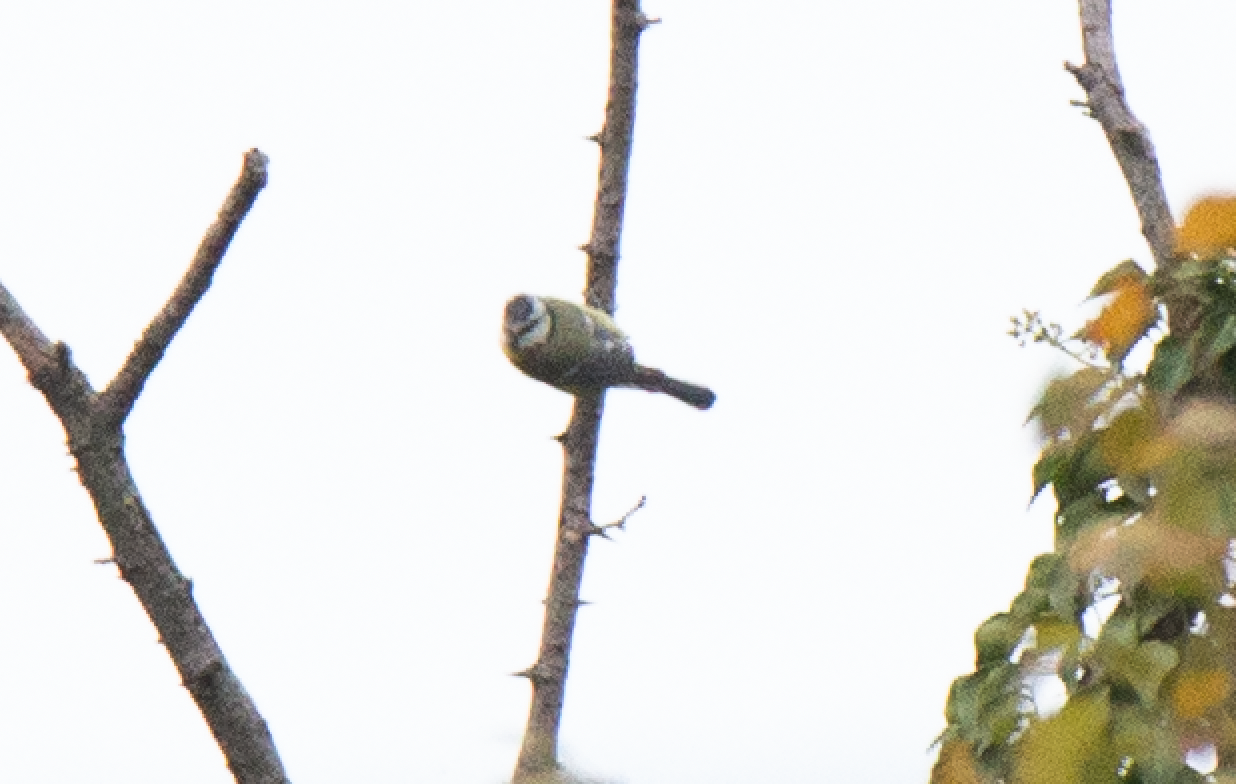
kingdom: Animalia
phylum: Chordata
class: Aves
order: Passeriformes
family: Paridae
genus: Cyanistes
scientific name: Cyanistes caeruleus
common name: Eurasian blue tit
